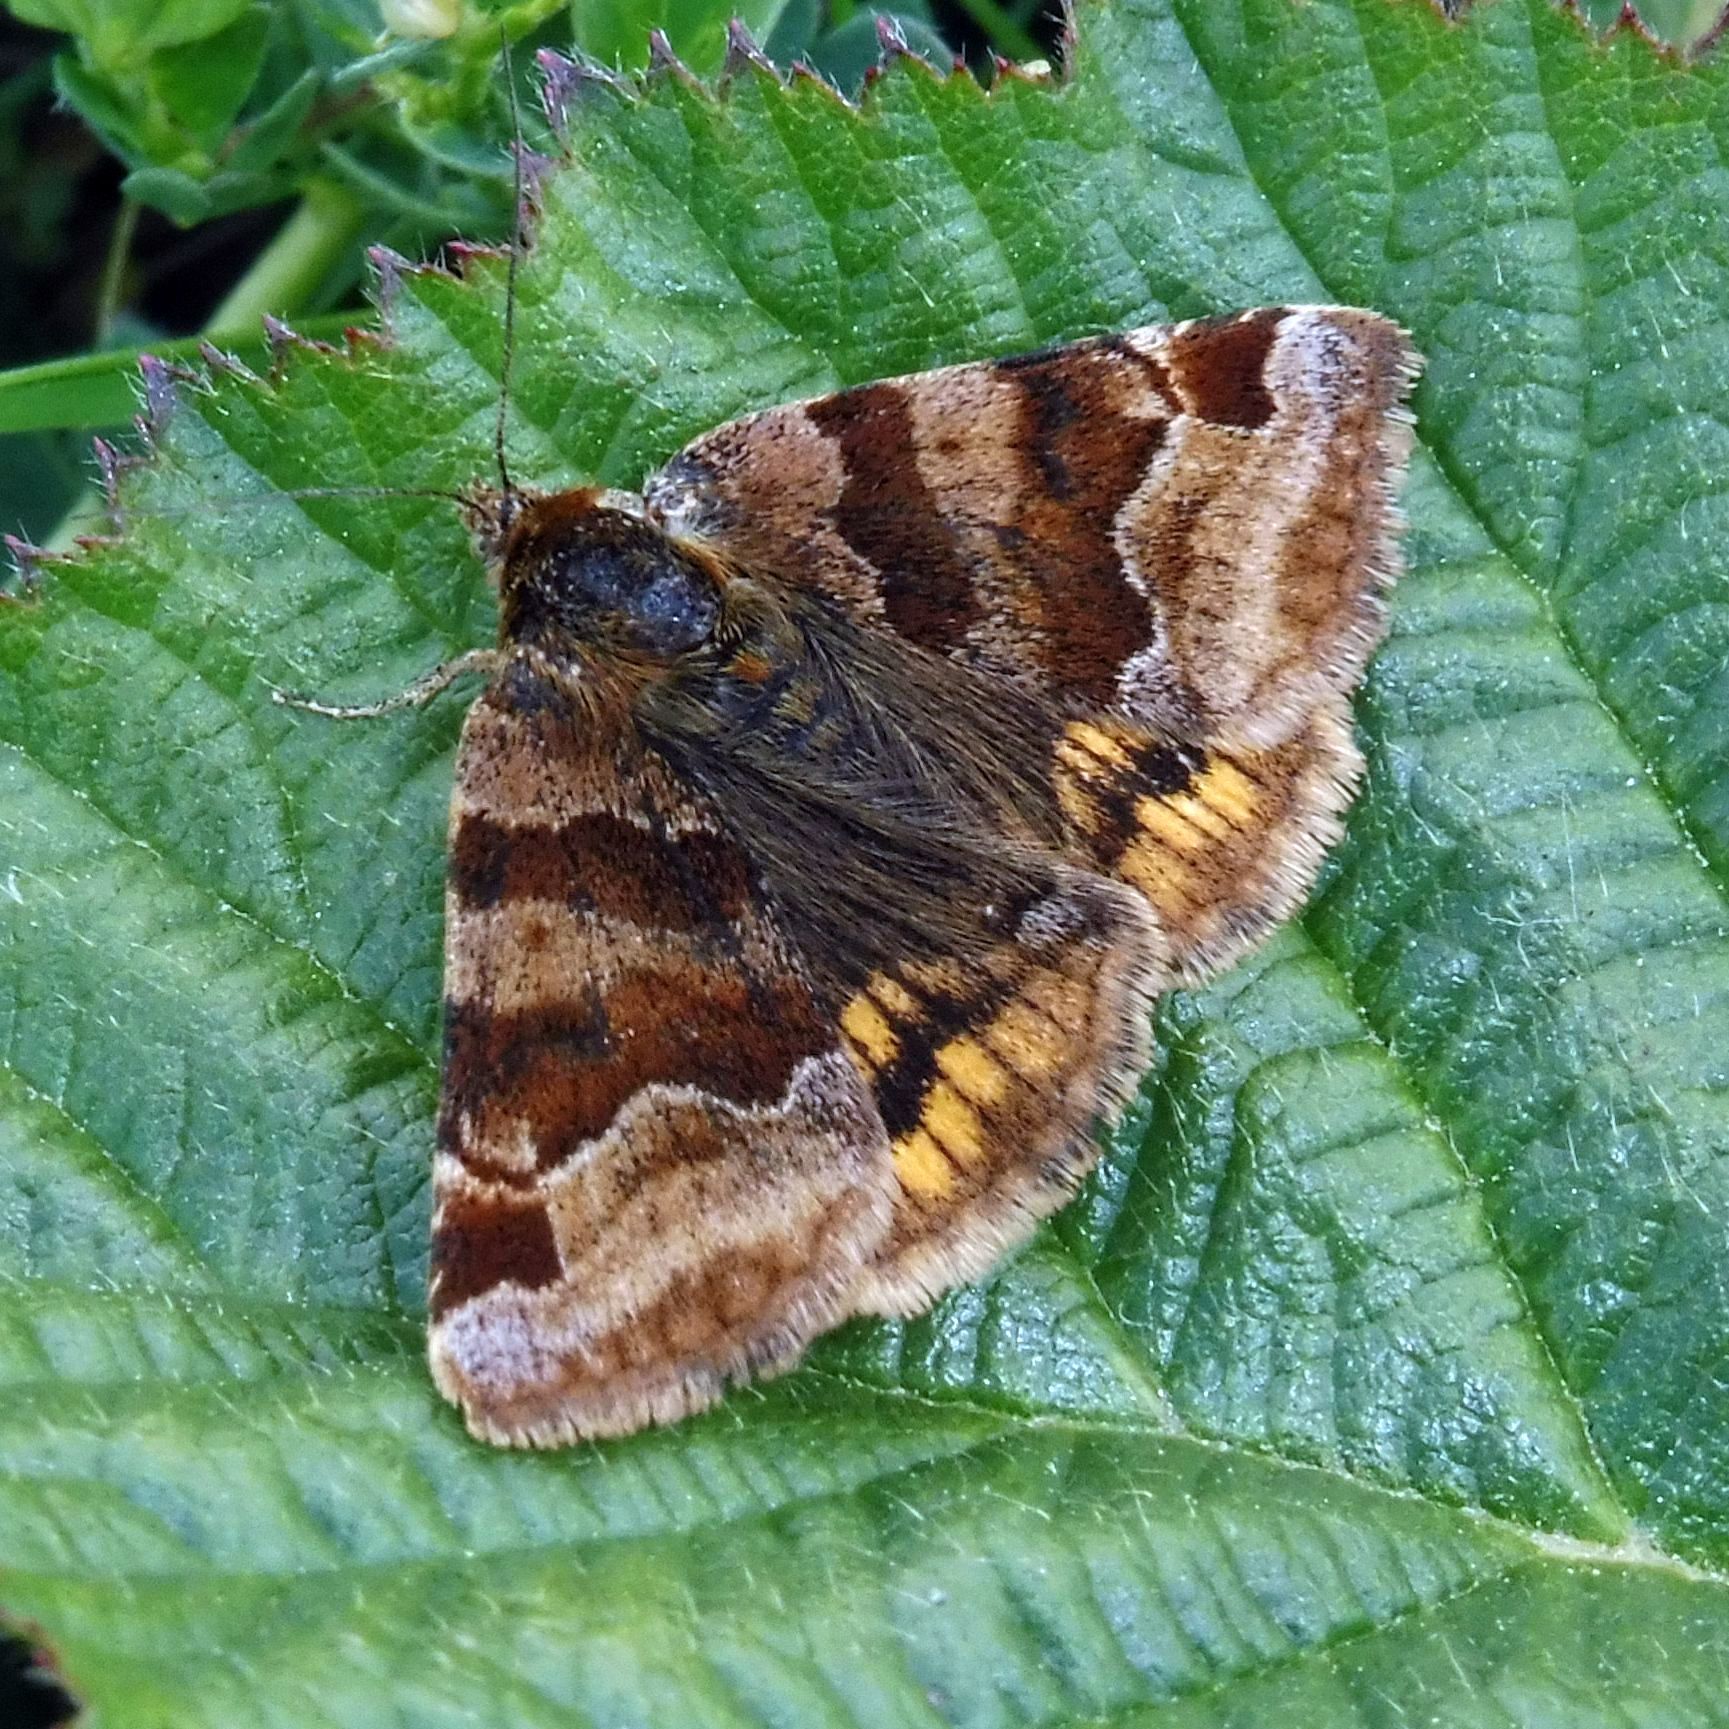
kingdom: Animalia
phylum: Arthropoda
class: Insecta
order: Lepidoptera
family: Erebidae
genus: Euclidia
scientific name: Euclidia glyphica
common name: Burnet companion
